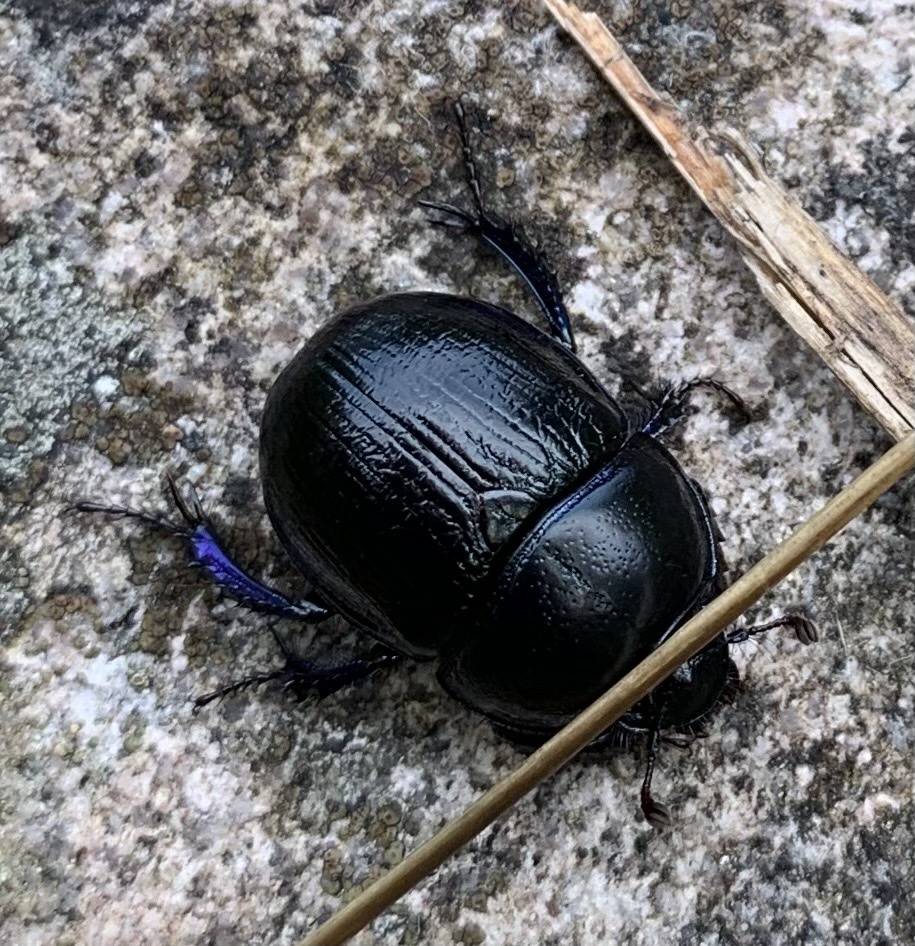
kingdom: Animalia
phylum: Arthropoda
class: Insecta
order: Coleoptera
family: Geotrupidae
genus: Anoplotrupes
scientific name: Anoplotrupes stercorosus
